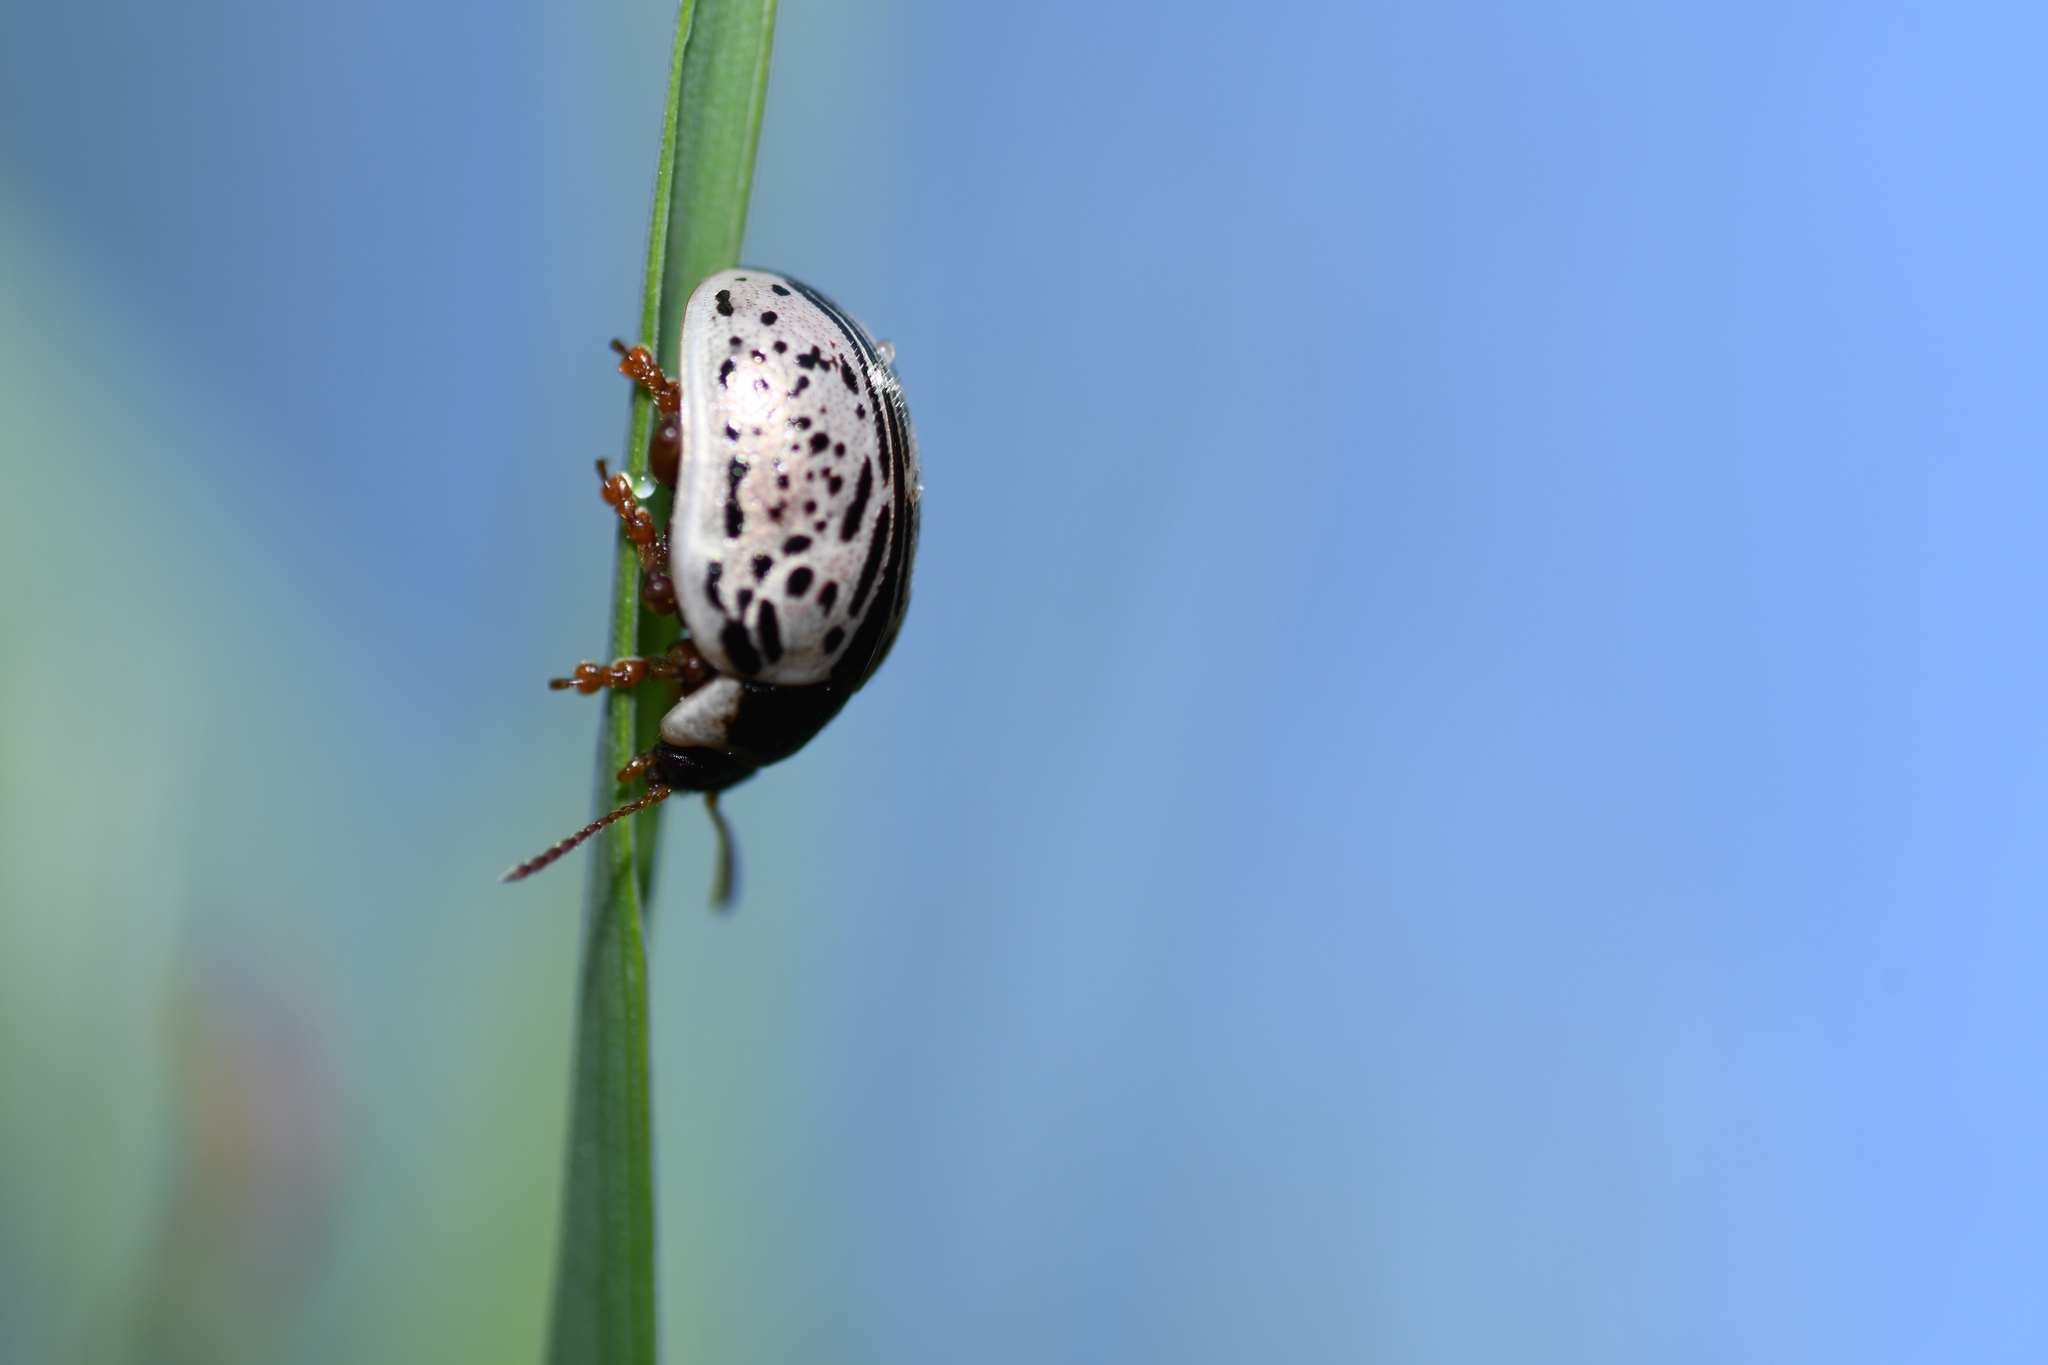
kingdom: Animalia
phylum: Arthropoda
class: Insecta
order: Coleoptera
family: Chrysomelidae
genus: Calligrapha
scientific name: Calligrapha multipunctata
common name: Common willow calligrapher beetle
